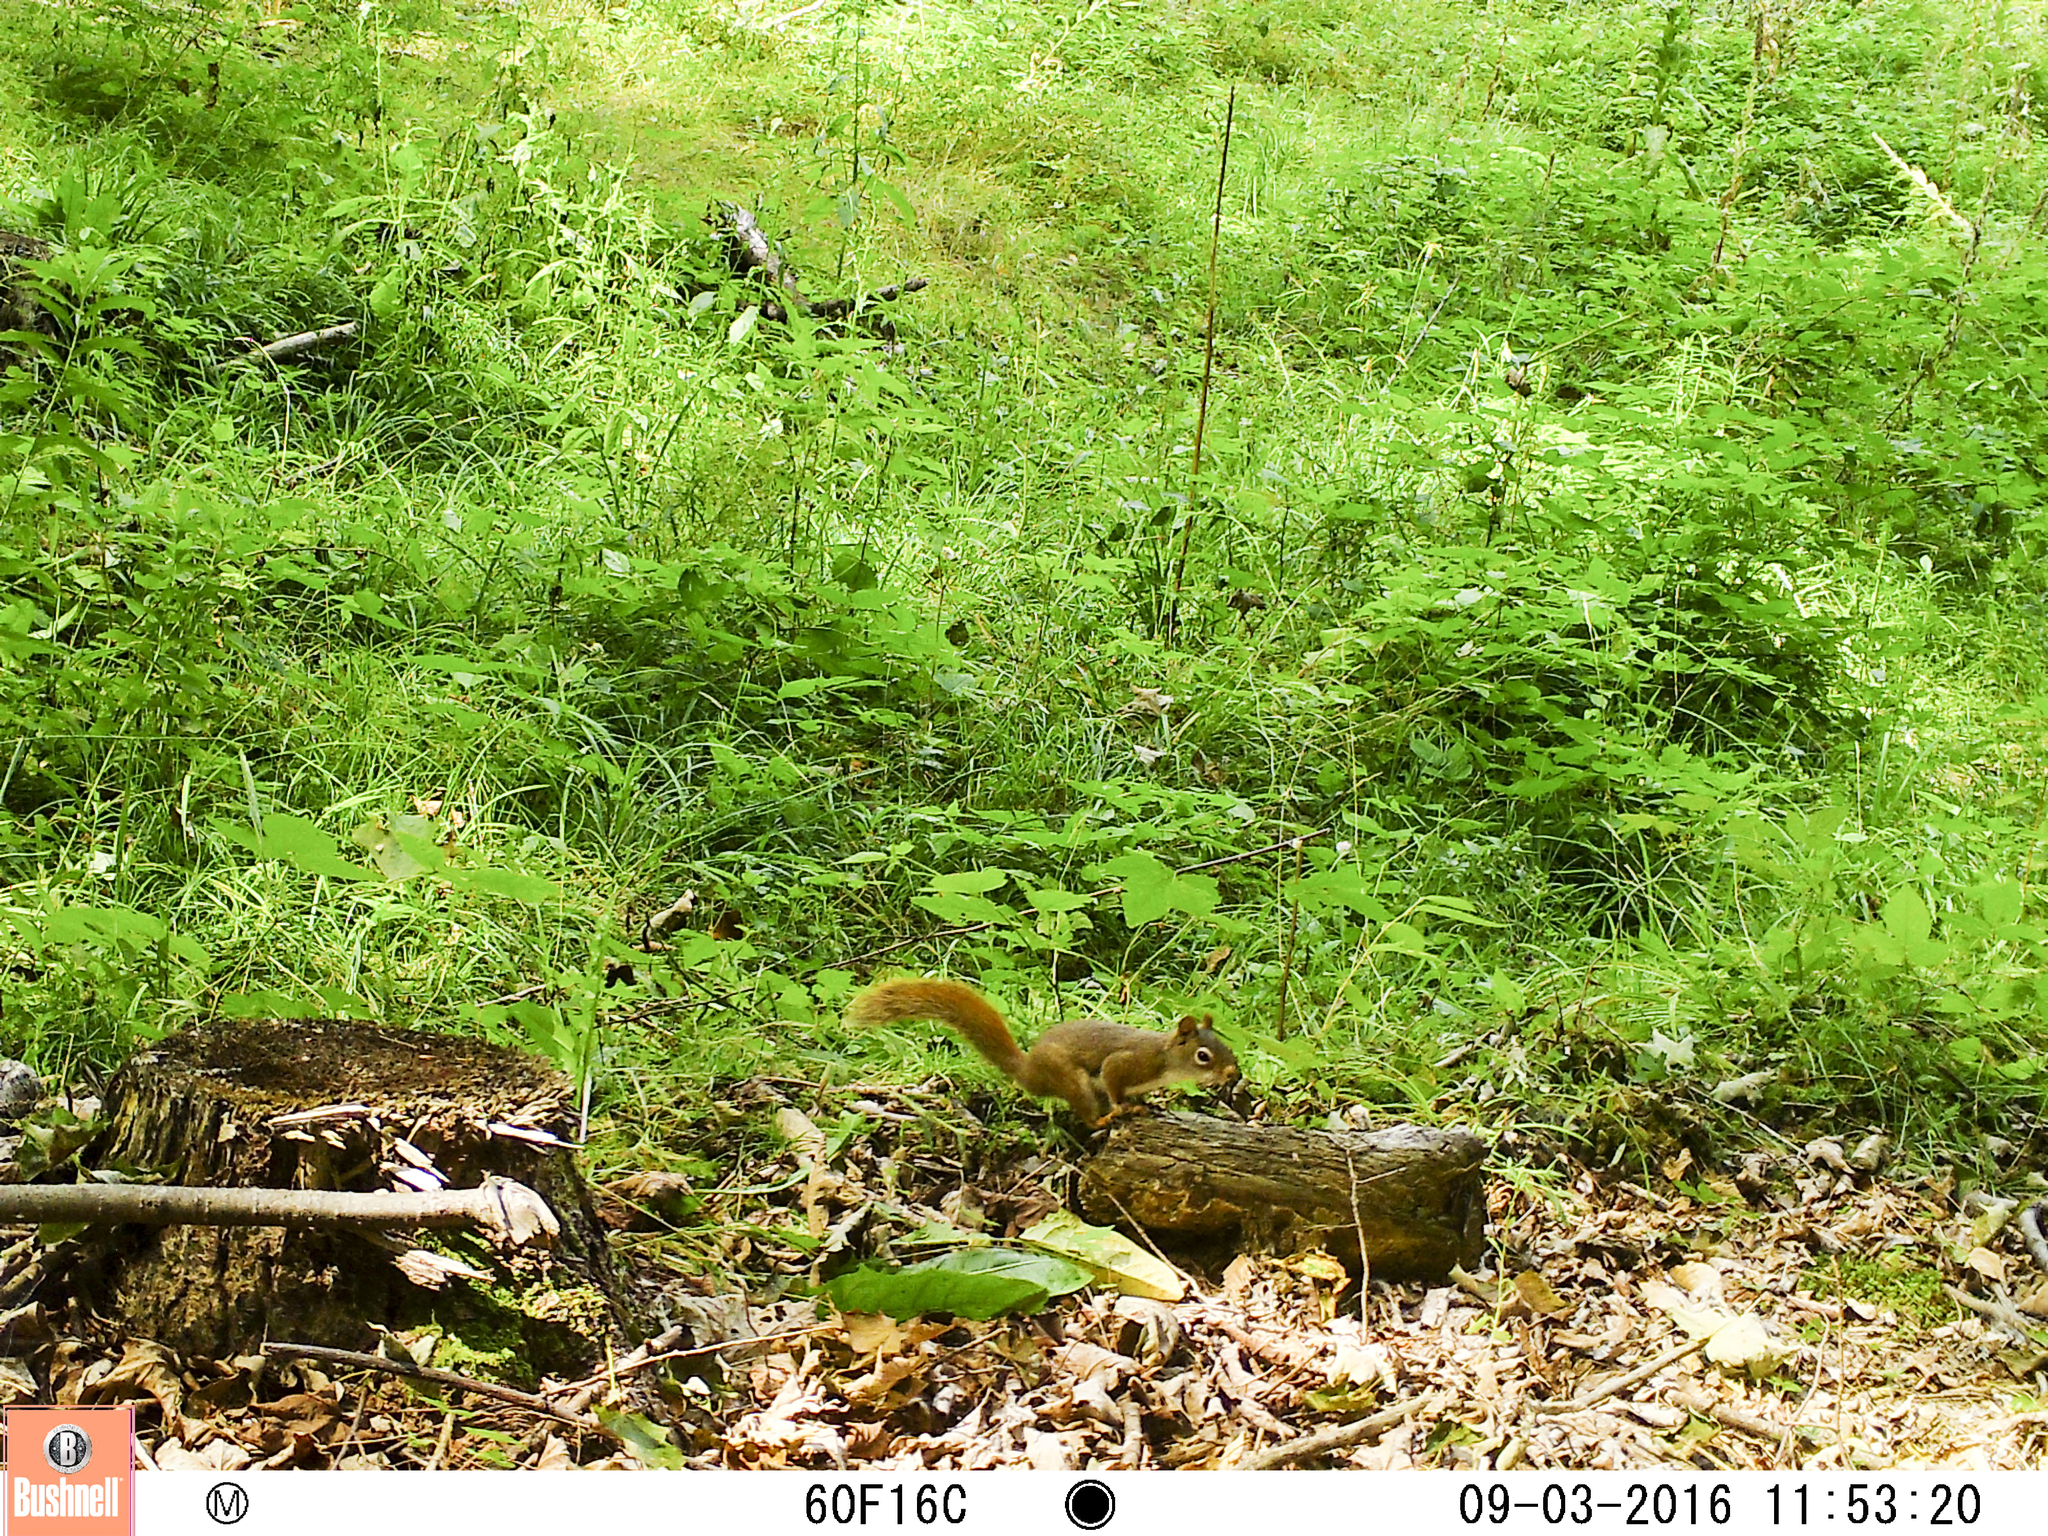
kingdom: Animalia
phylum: Chordata
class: Mammalia
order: Rodentia
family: Sciuridae
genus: Tamiasciurus
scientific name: Tamiasciurus hudsonicus
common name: Red squirrel
